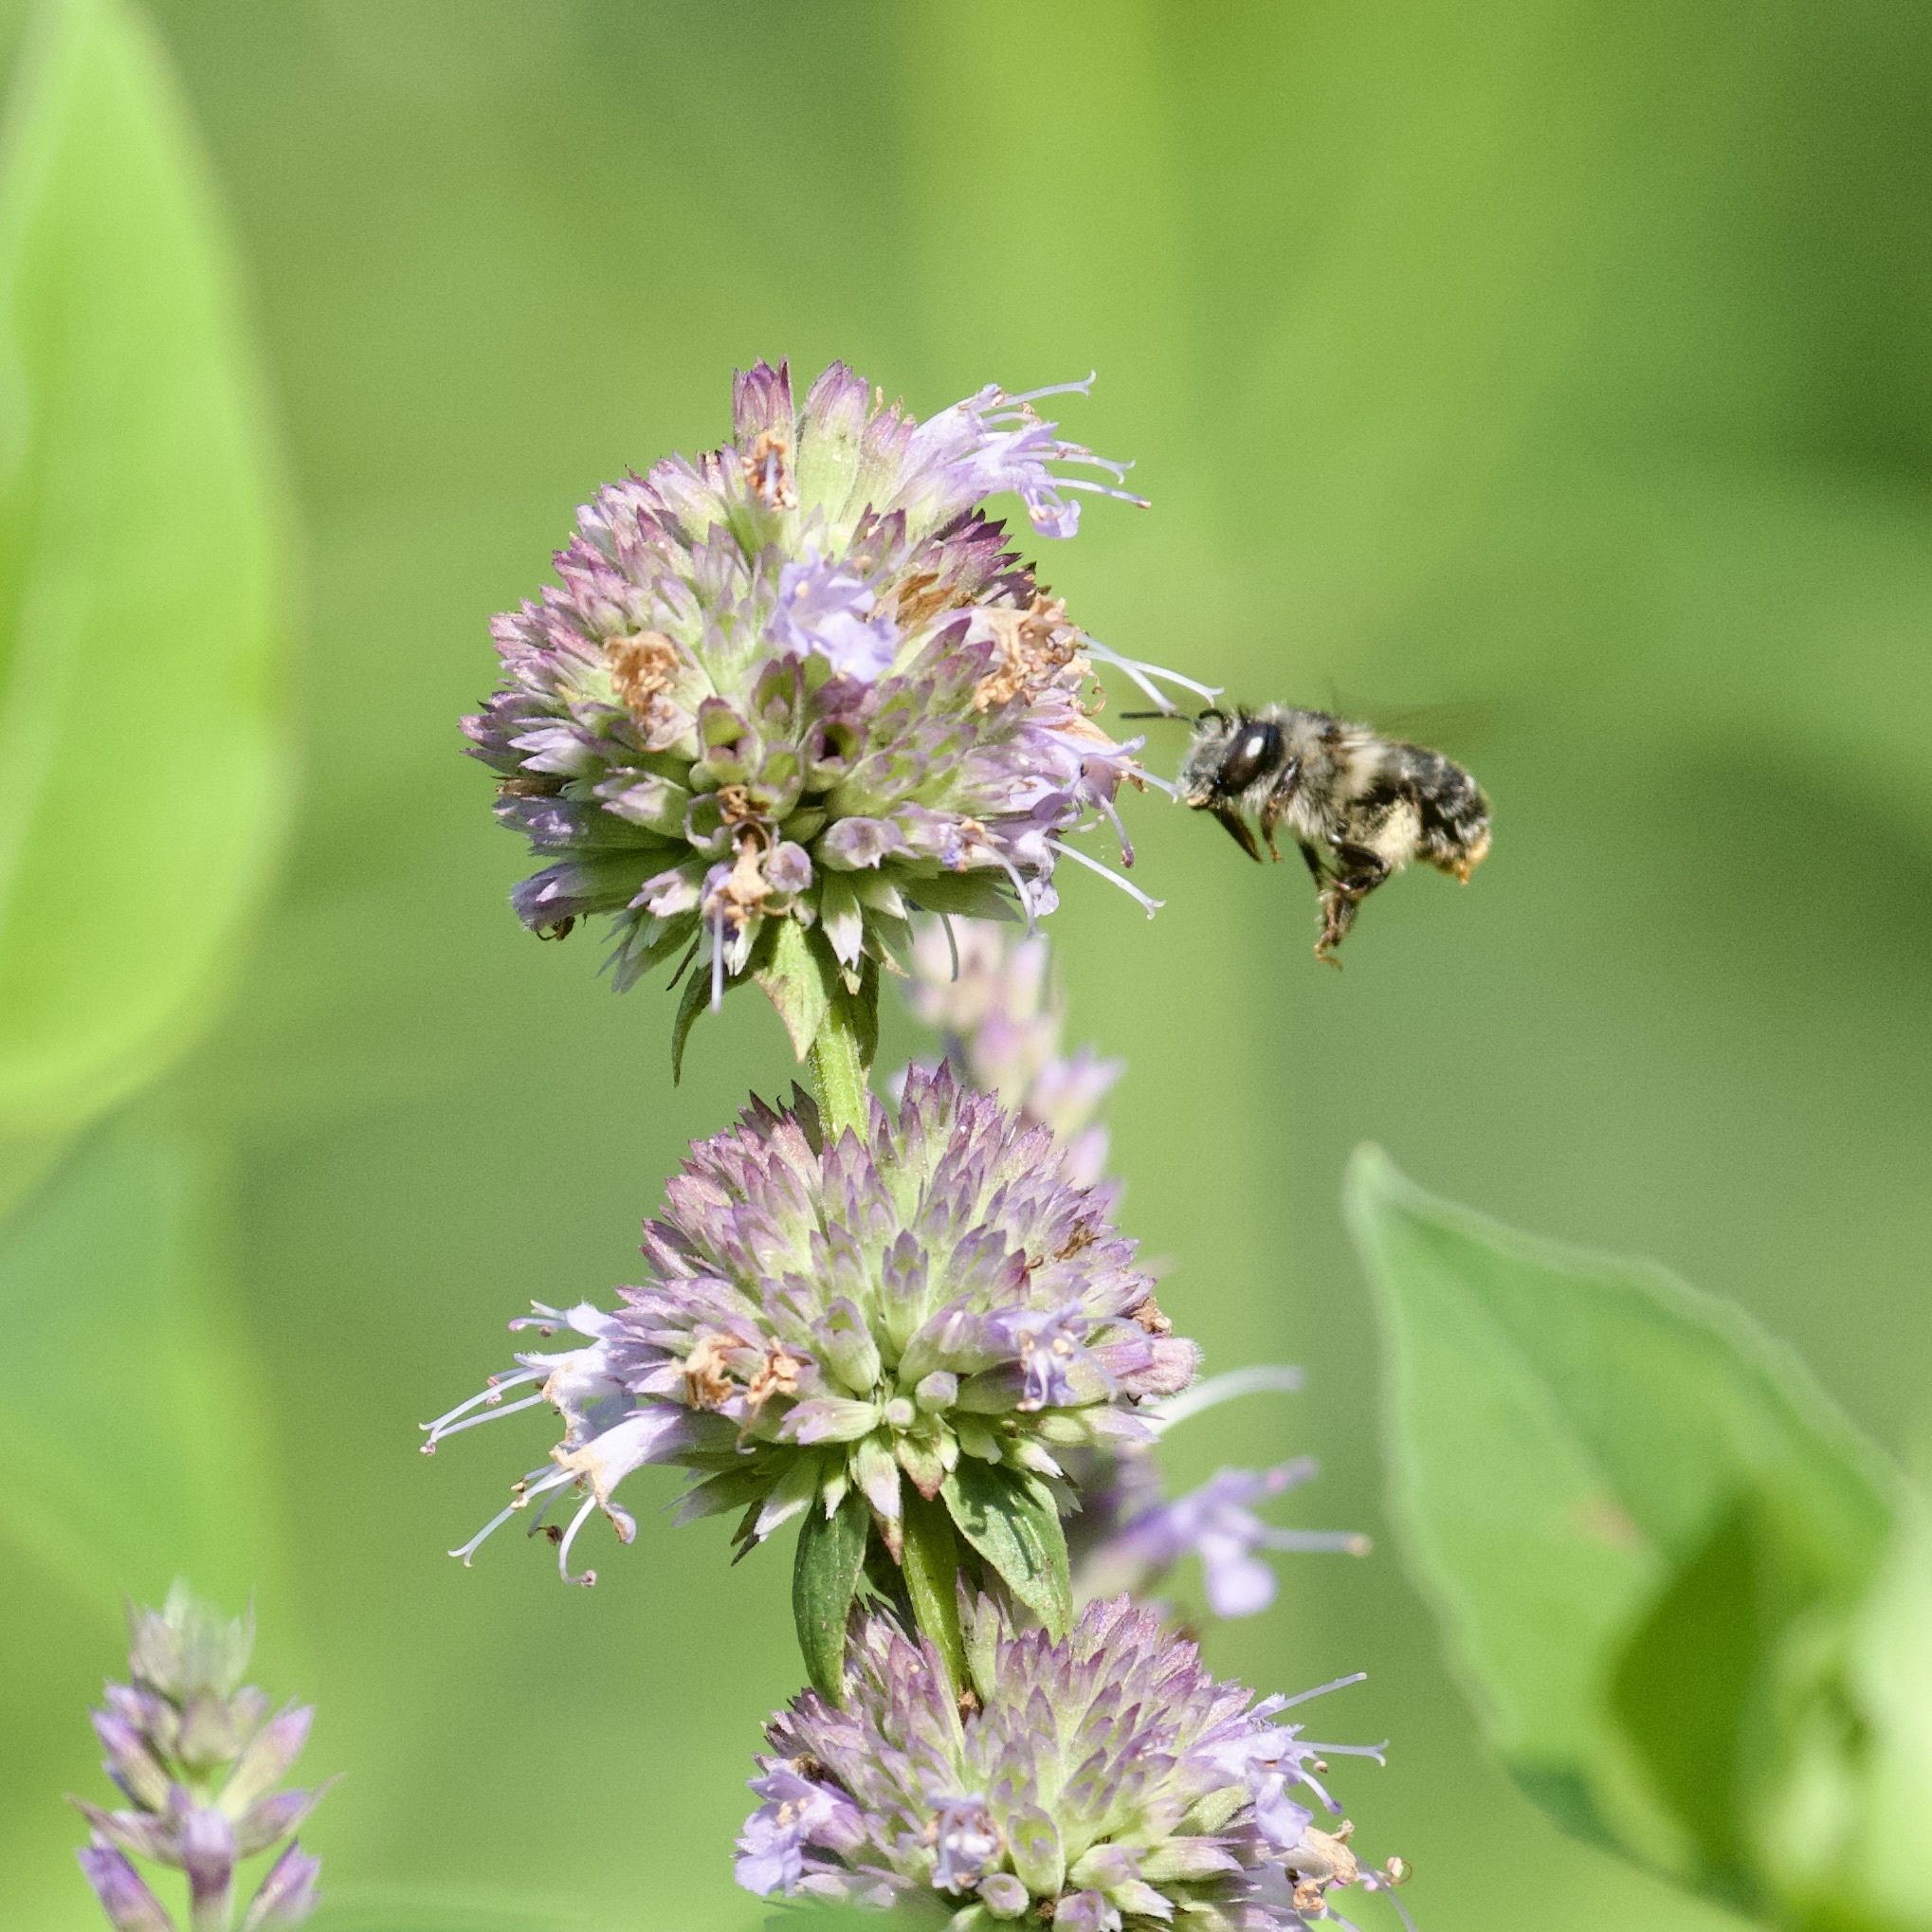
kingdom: Animalia
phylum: Arthropoda
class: Insecta
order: Hymenoptera
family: Apidae
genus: Anthophora
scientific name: Anthophora terminalis
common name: Orange-tipped wood-digger bee
